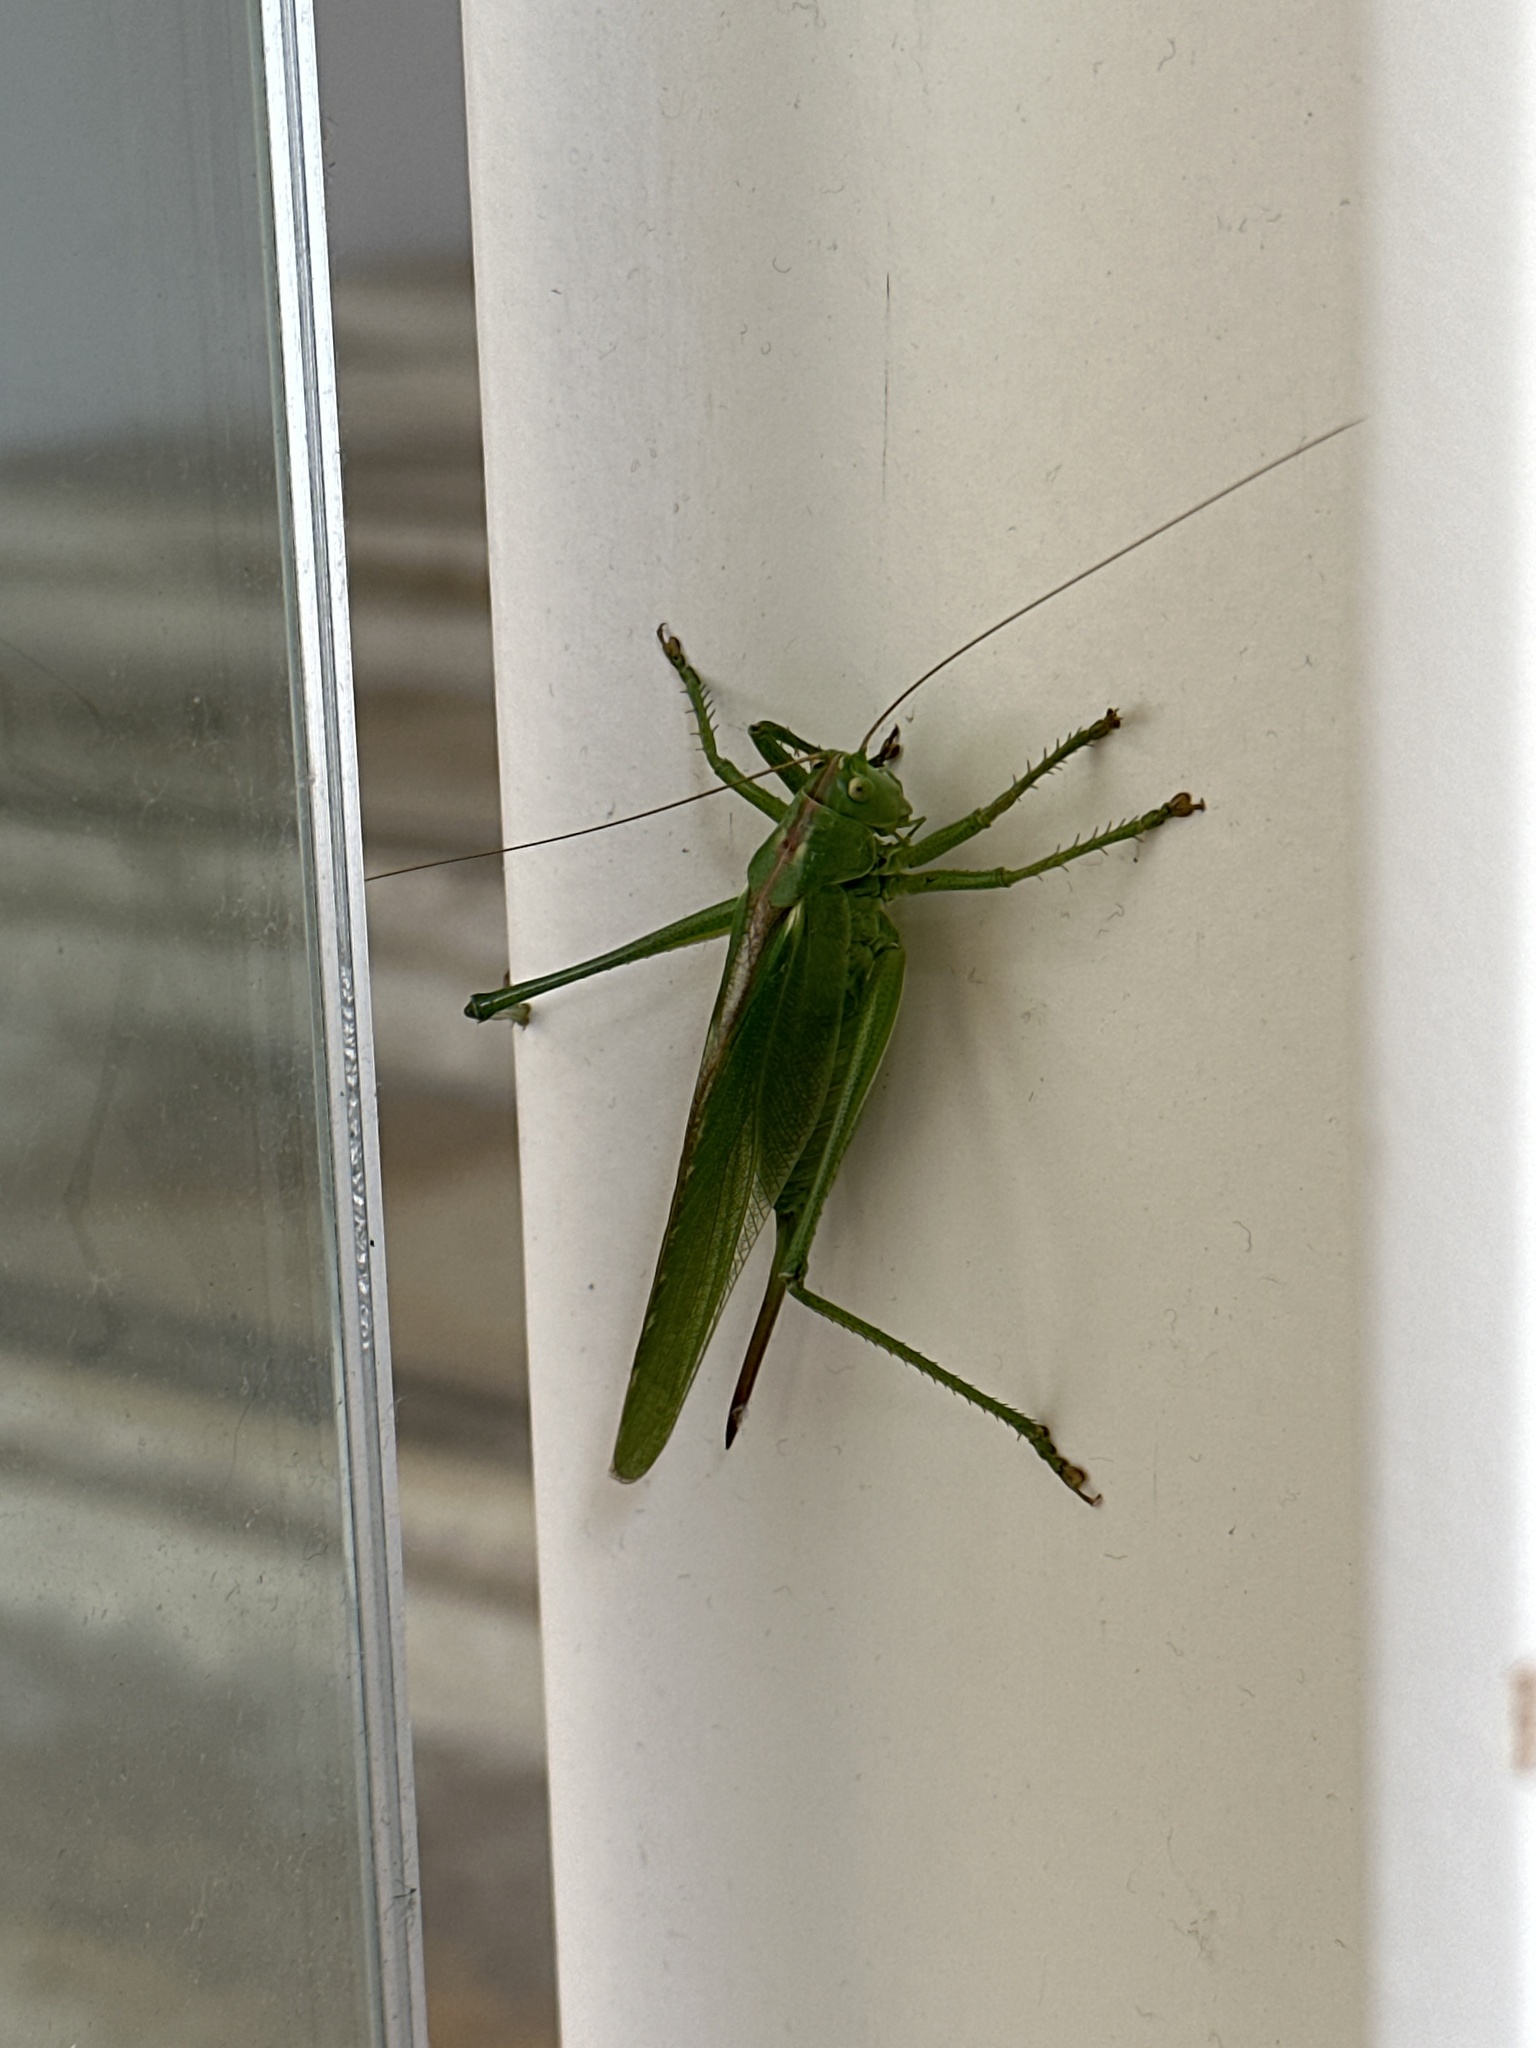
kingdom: Animalia
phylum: Arthropoda
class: Insecta
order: Orthoptera
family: Tettigoniidae
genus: Tettigonia
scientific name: Tettigonia viridissima
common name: Great green bush-cricket
